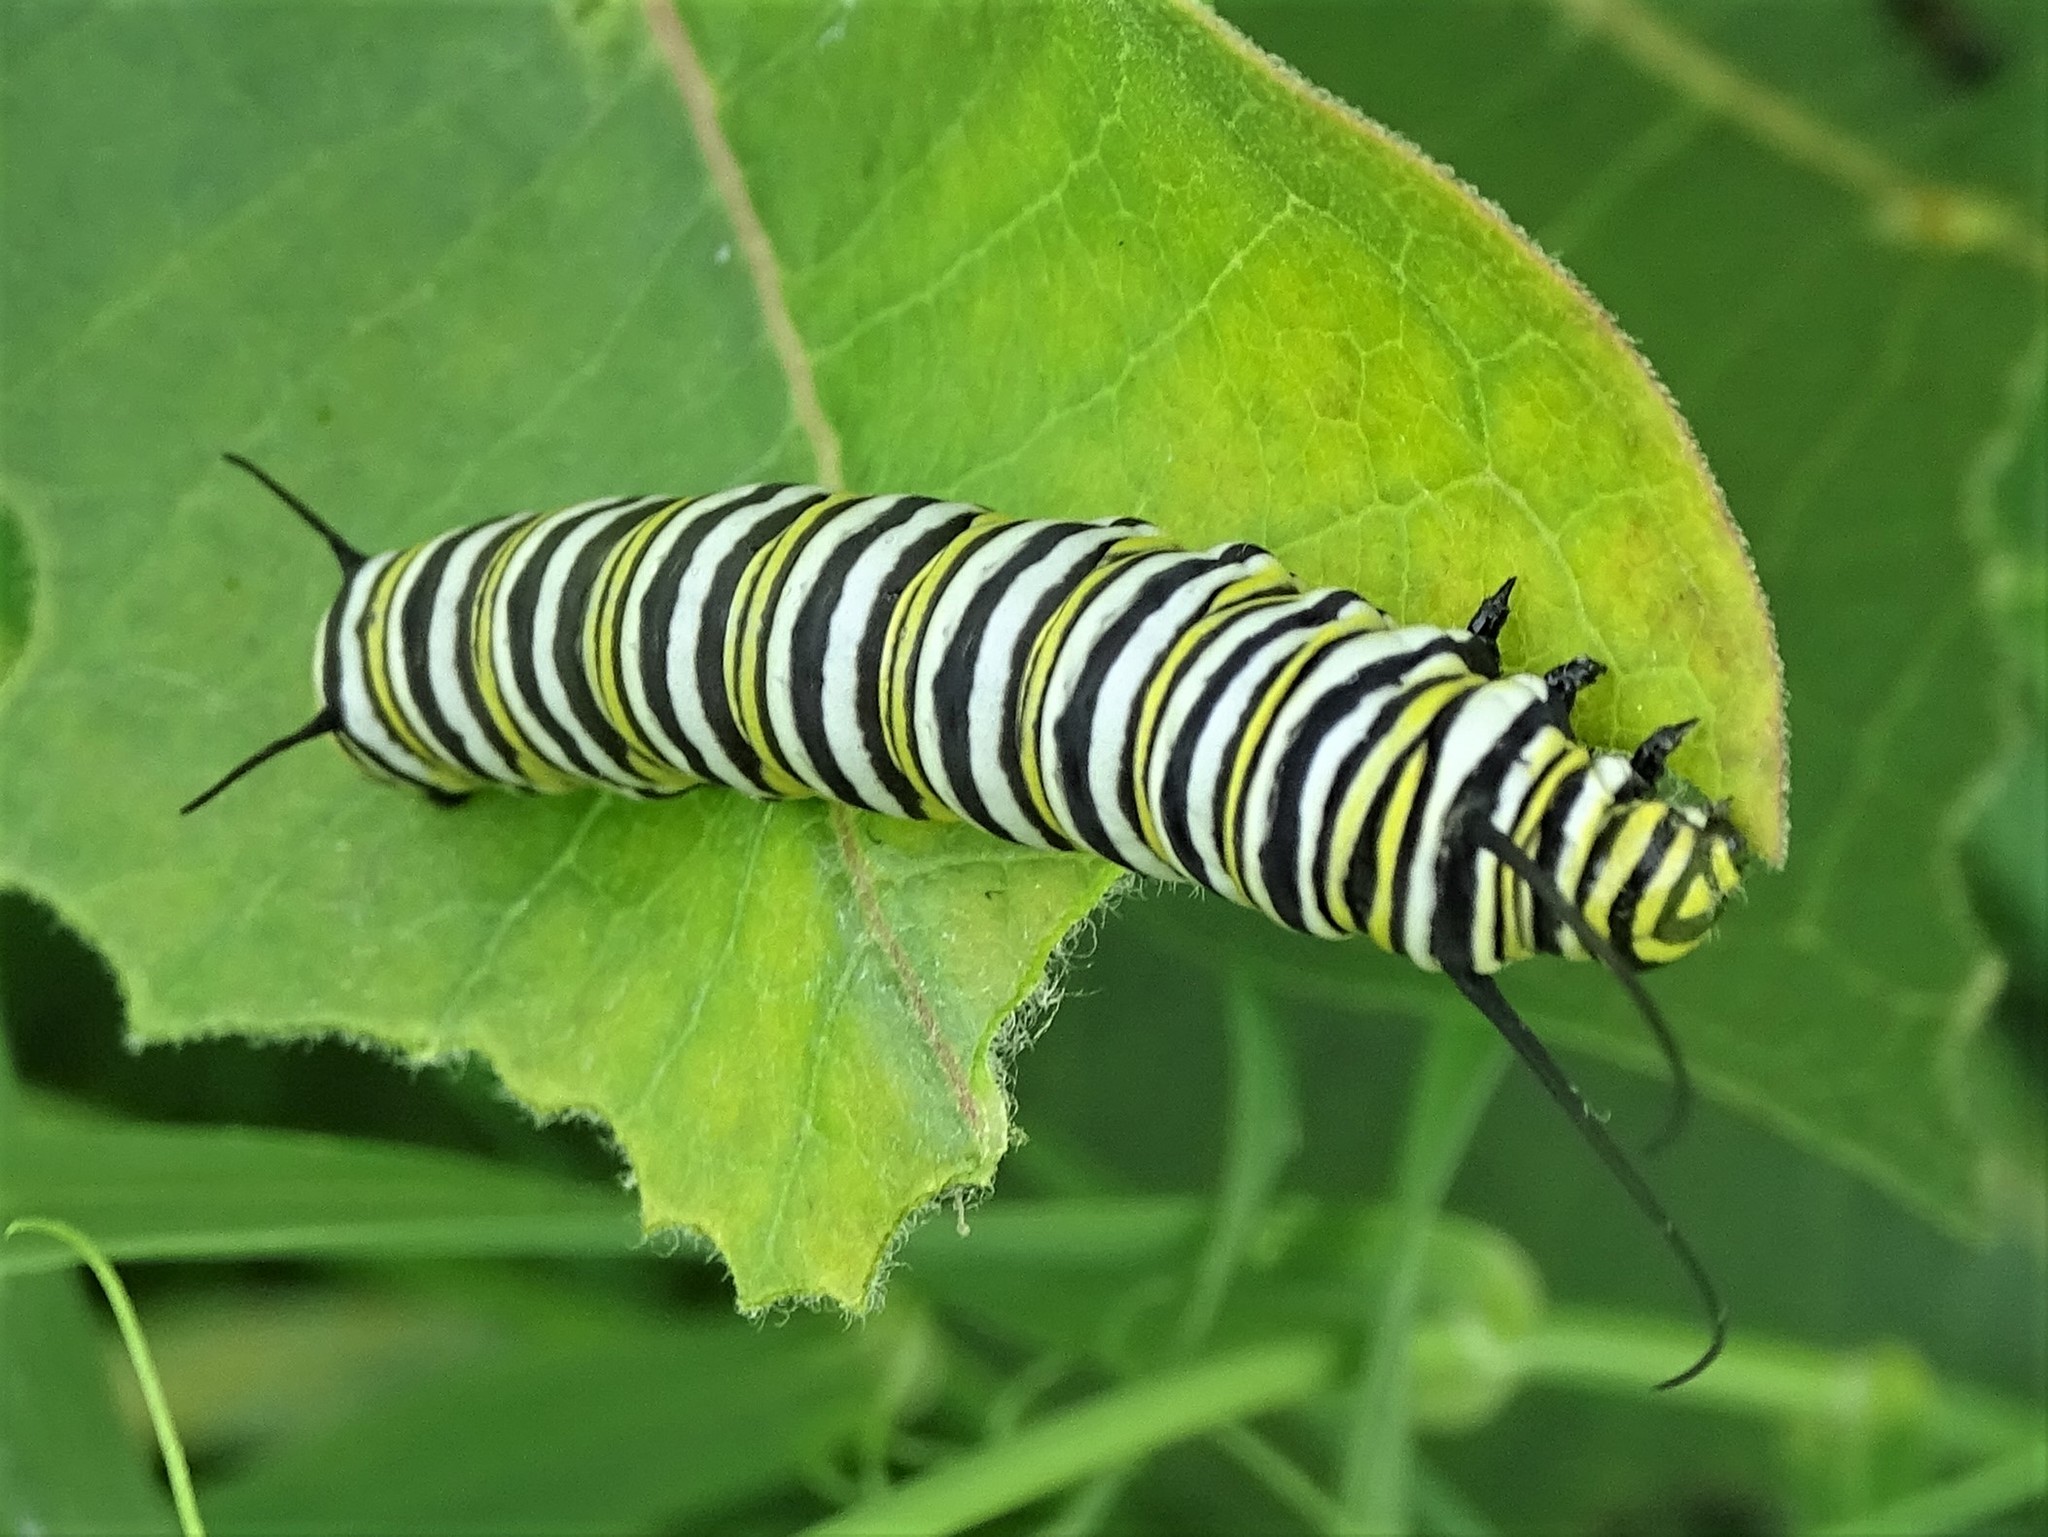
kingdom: Animalia
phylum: Arthropoda
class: Insecta
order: Lepidoptera
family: Nymphalidae
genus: Danaus
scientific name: Danaus plexippus
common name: Monarch
